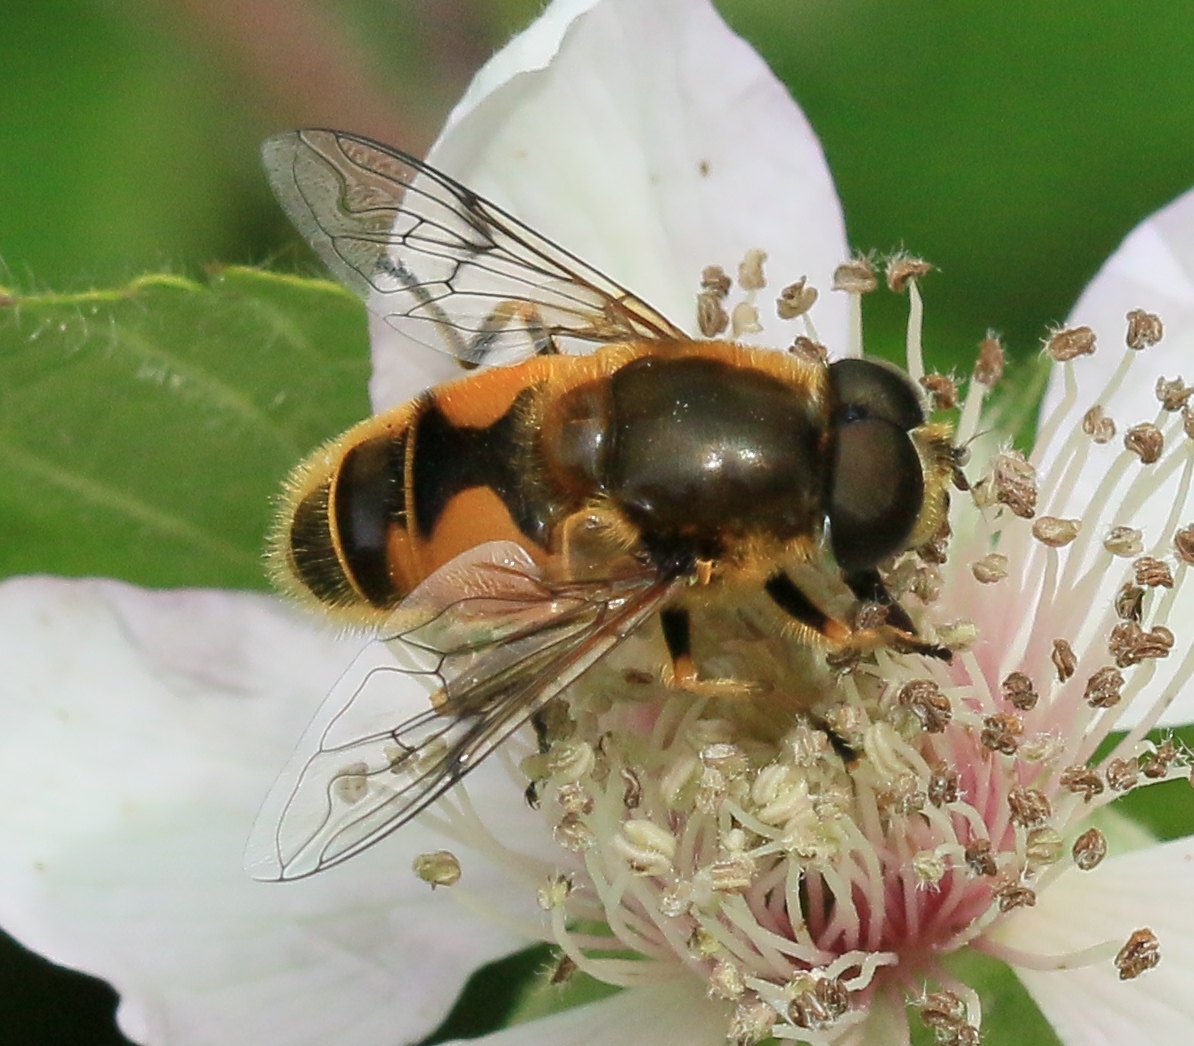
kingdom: Animalia
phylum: Arthropoda
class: Insecta
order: Diptera
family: Syrphidae
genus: Cheilosia
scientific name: Cheilosia morio
